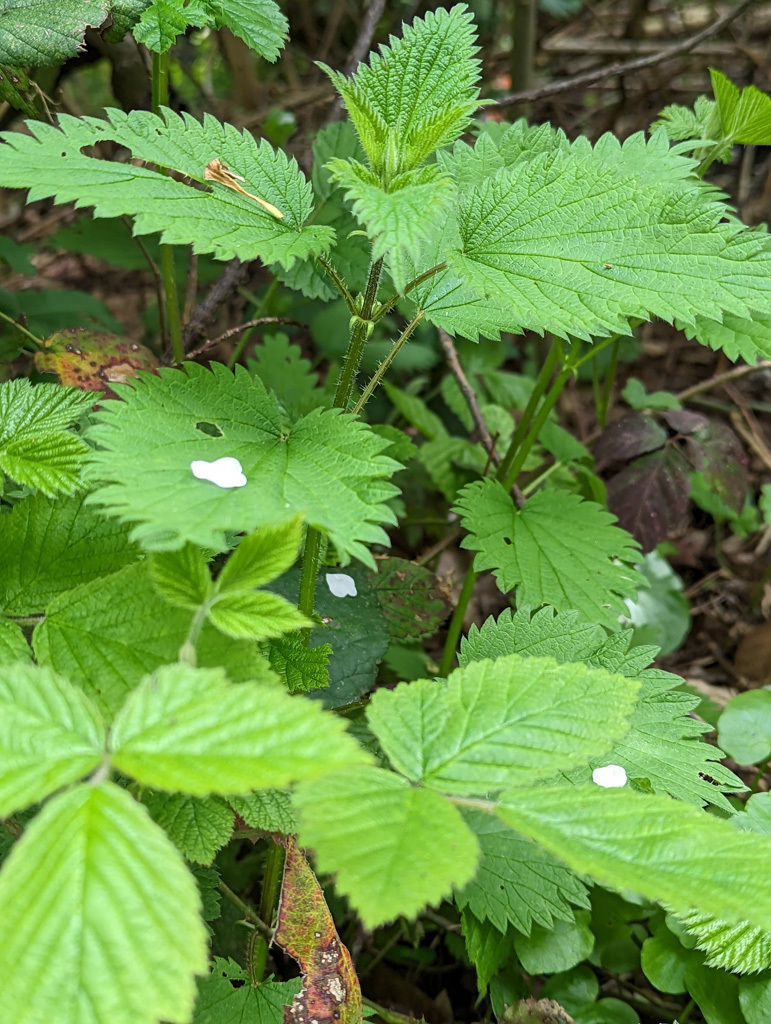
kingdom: Plantae
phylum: Tracheophyta
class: Magnoliopsida
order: Rosales
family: Urticaceae
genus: Urtica
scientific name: Urtica dioica
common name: Common nettle
